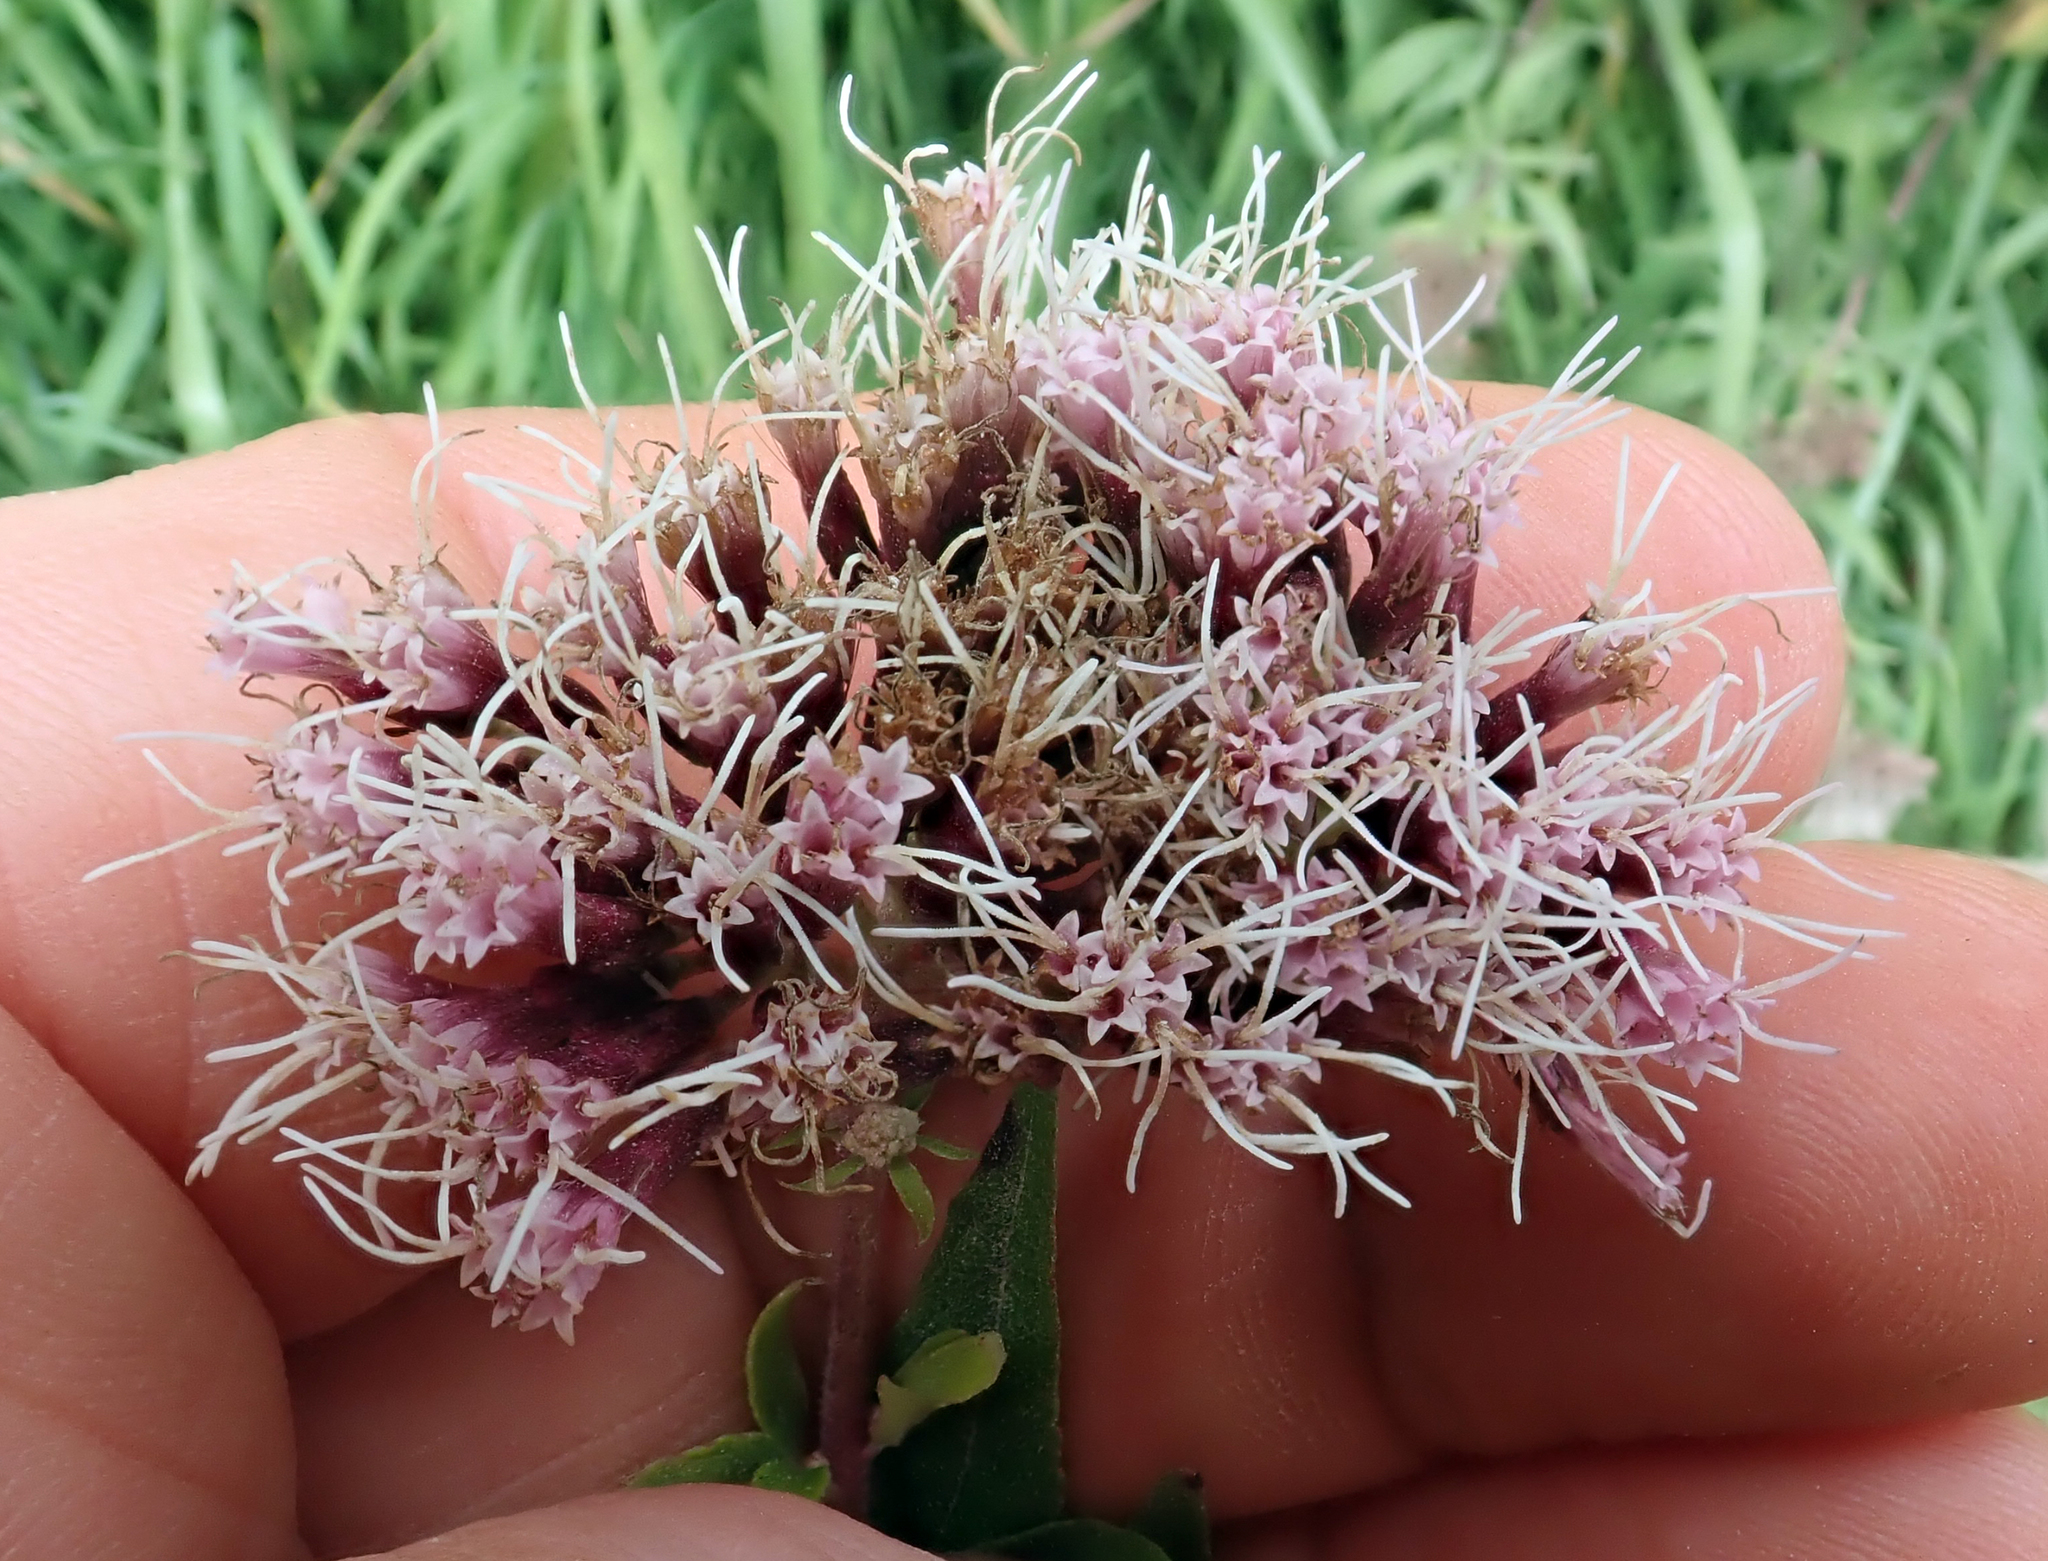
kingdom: Plantae
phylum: Tracheophyta
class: Magnoliopsida
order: Asterales
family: Asteraceae
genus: Eupatorium
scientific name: Eupatorium cannabinum
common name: Hemp-agrimony
